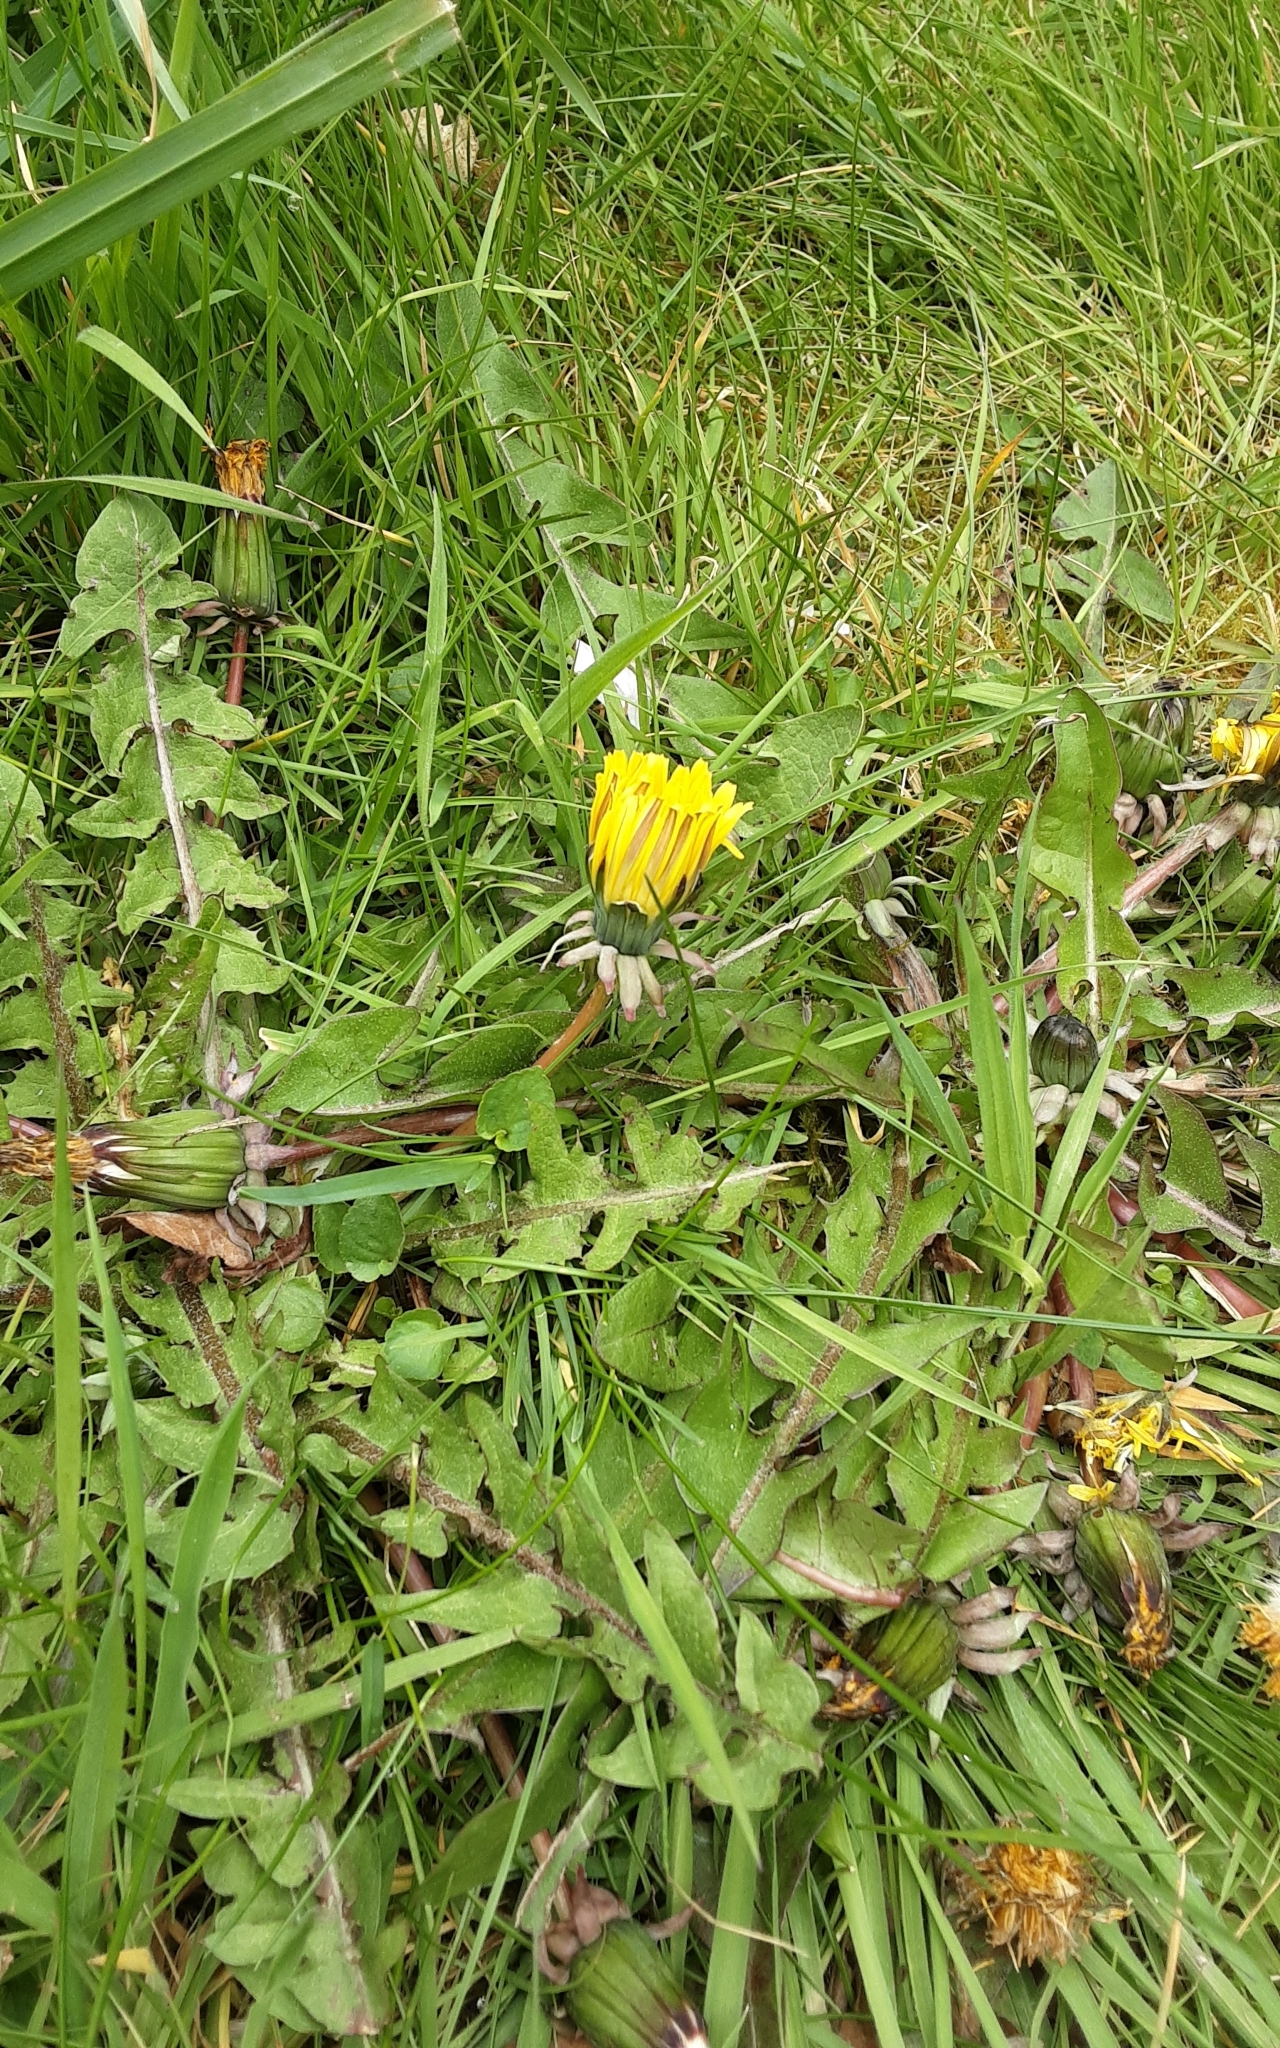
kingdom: Plantae
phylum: Tracheophyta
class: Magnoliopsida
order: Asterales
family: Asteraceae
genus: Taraxacum
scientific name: Taraxacum officinale
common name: Common dandelion
